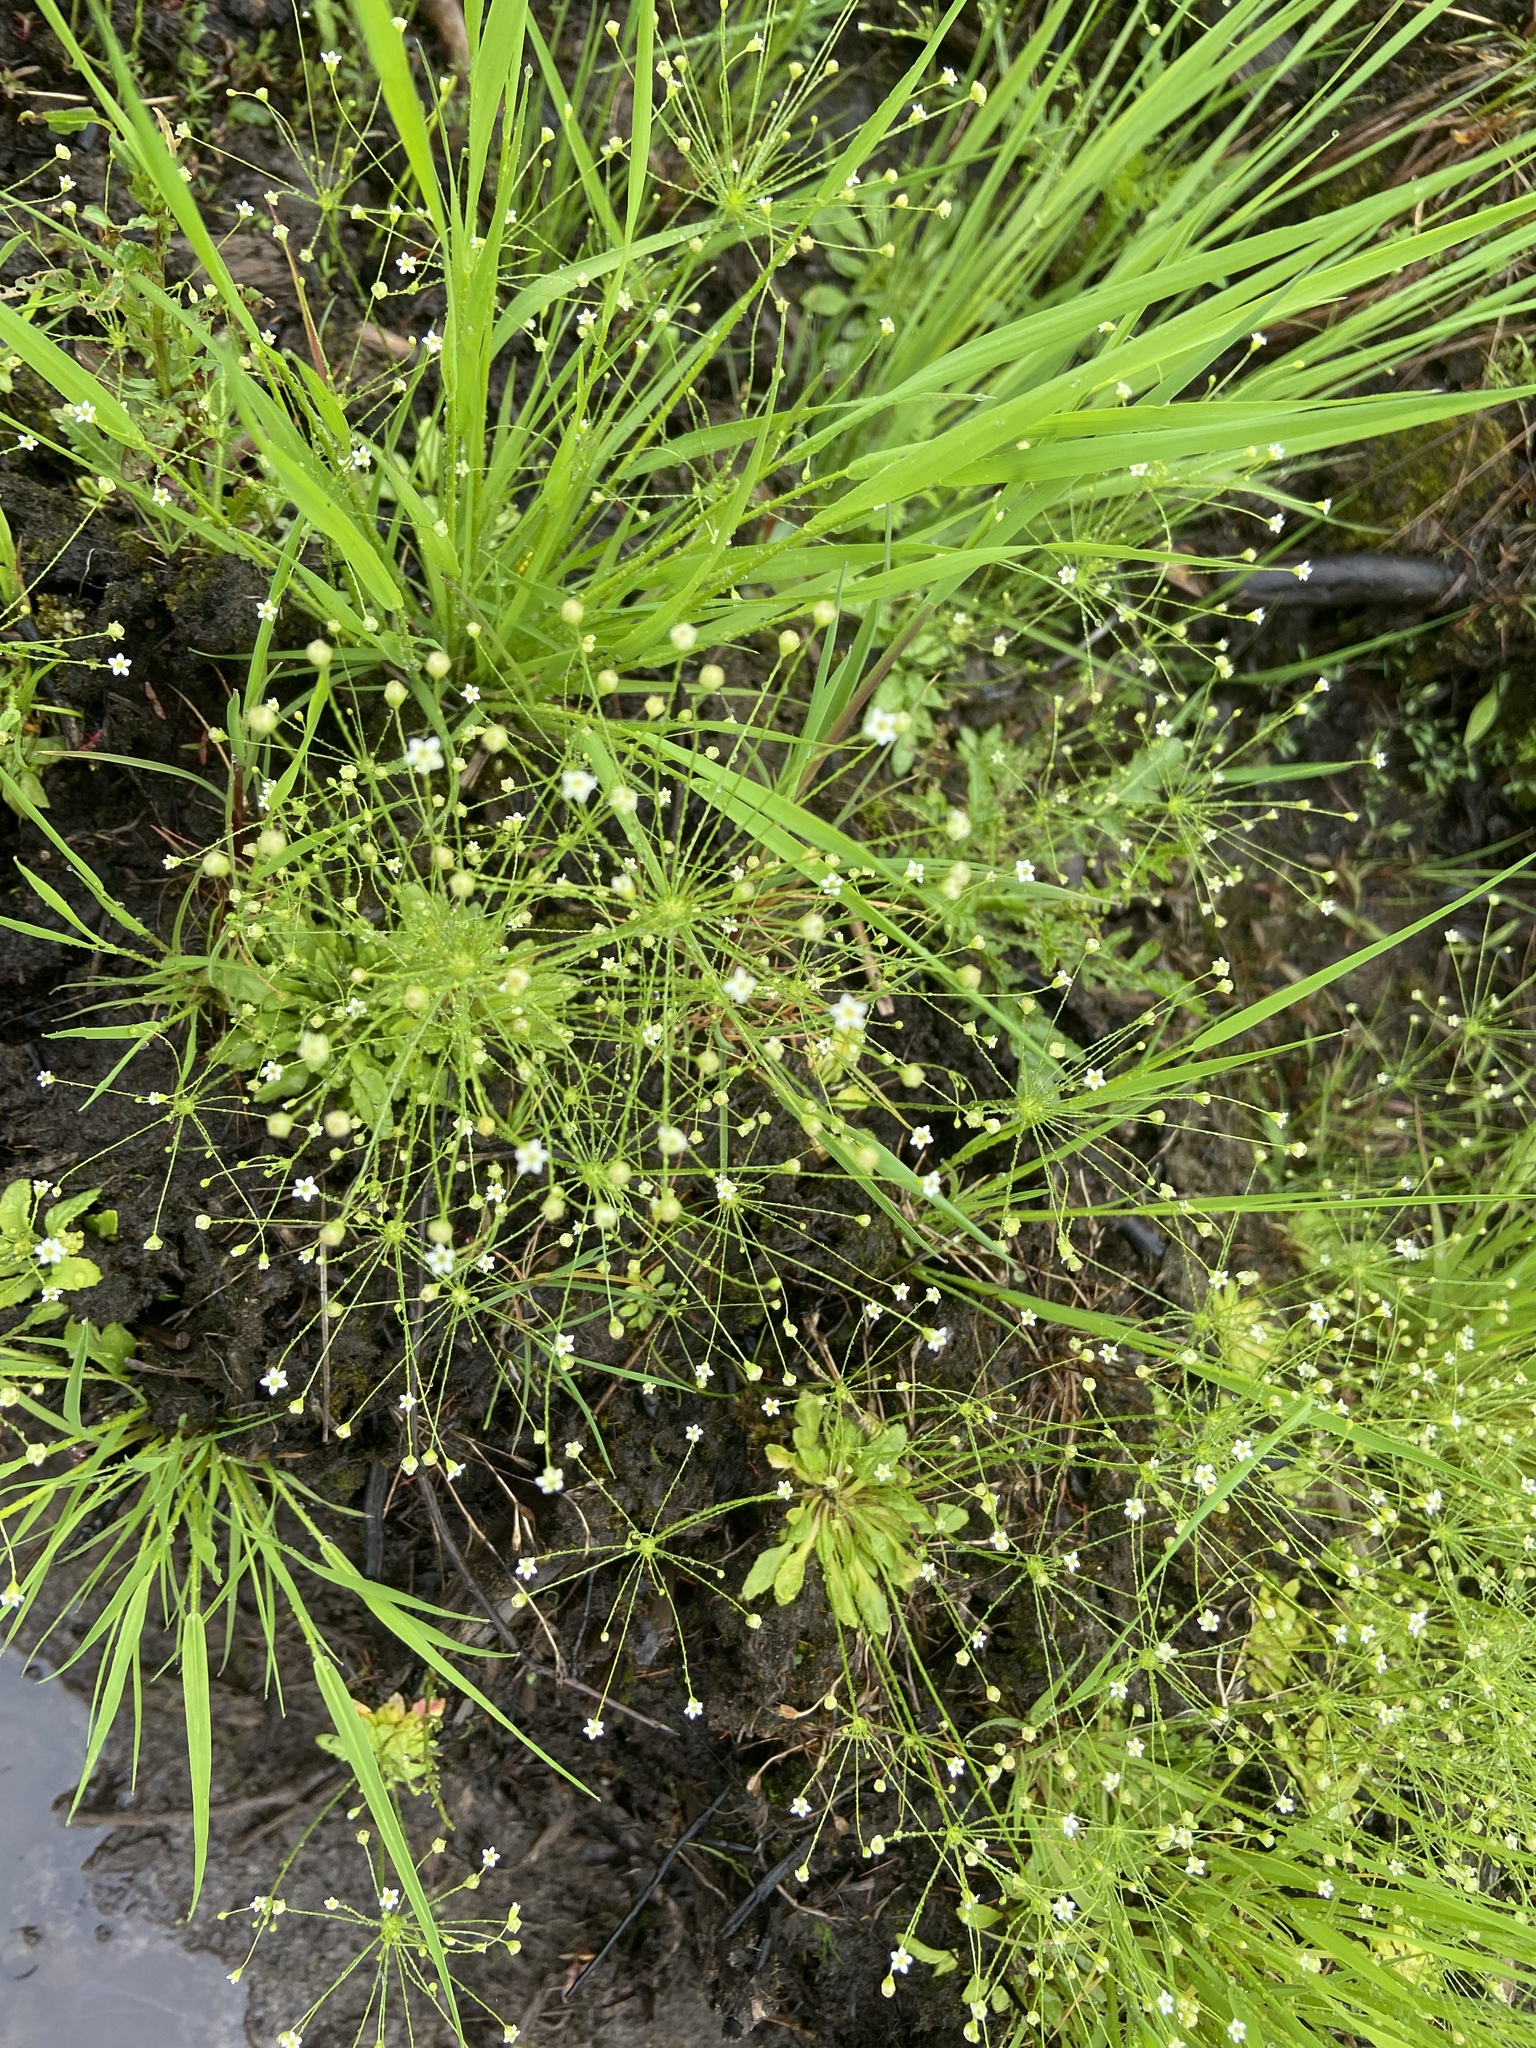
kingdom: Plantae
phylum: Tracheophyta
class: Magnoliopsida
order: Ericales
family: Primulaceae
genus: Androsace
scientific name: Androsace filiformis
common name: Filiform rock jasmine
